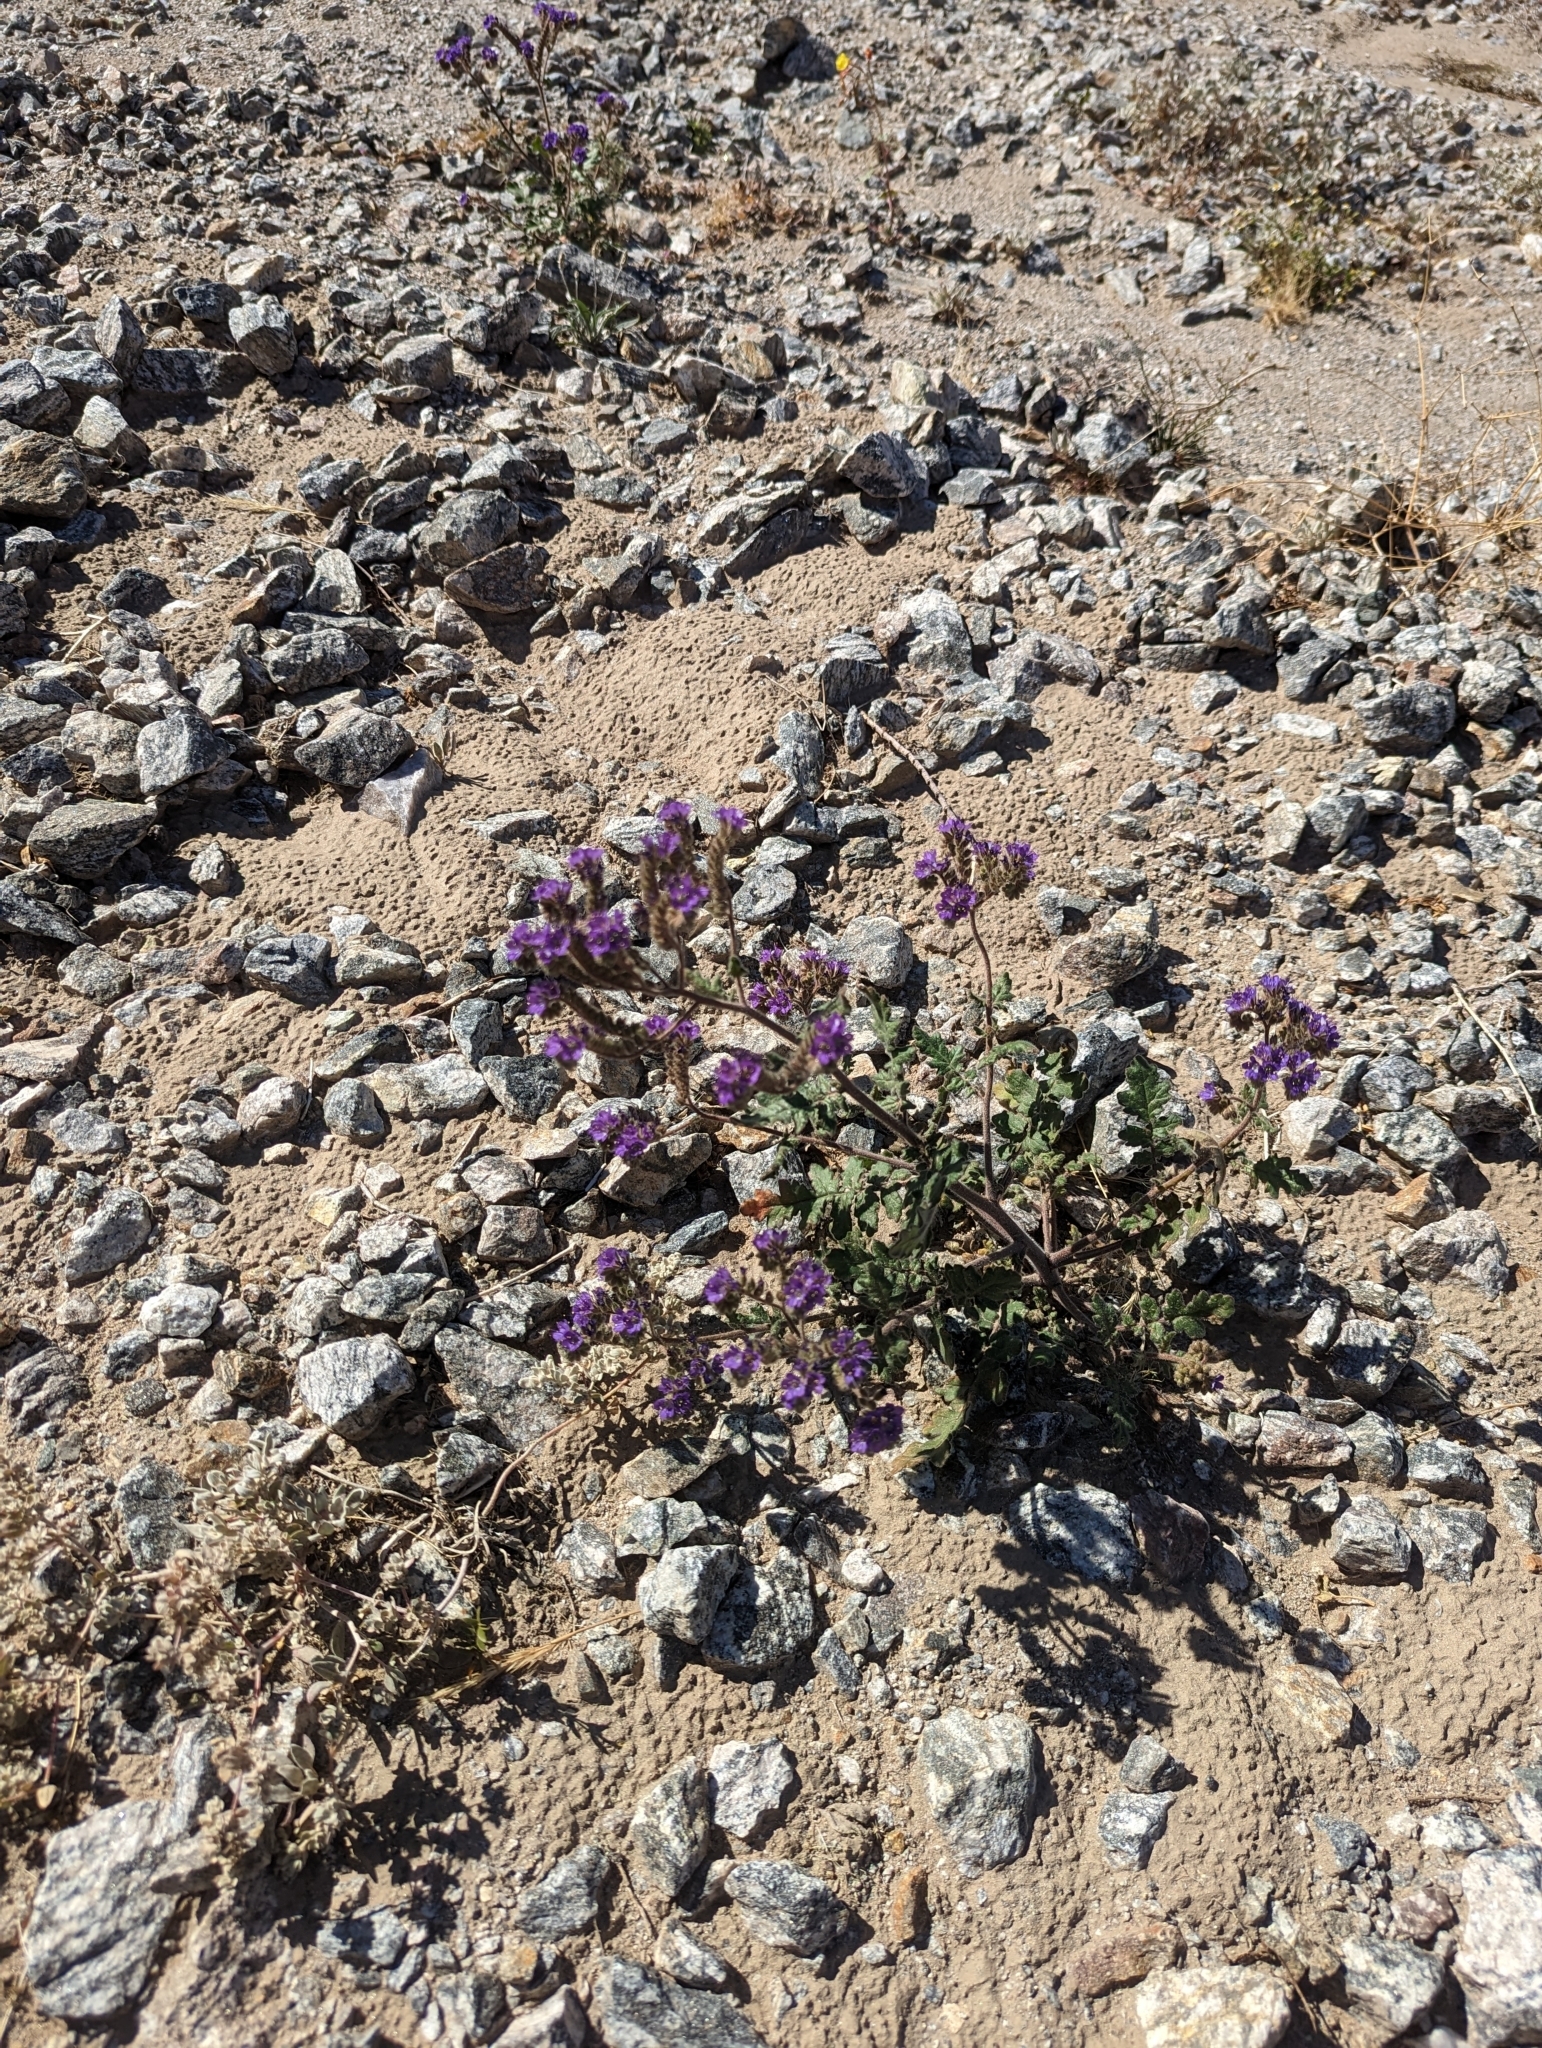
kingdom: Plantae
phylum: Tracheophyta
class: Magnoliopsida
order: Boraginales
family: Hydrophyllaceae
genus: Phacelia
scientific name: Phacelia crenulata
